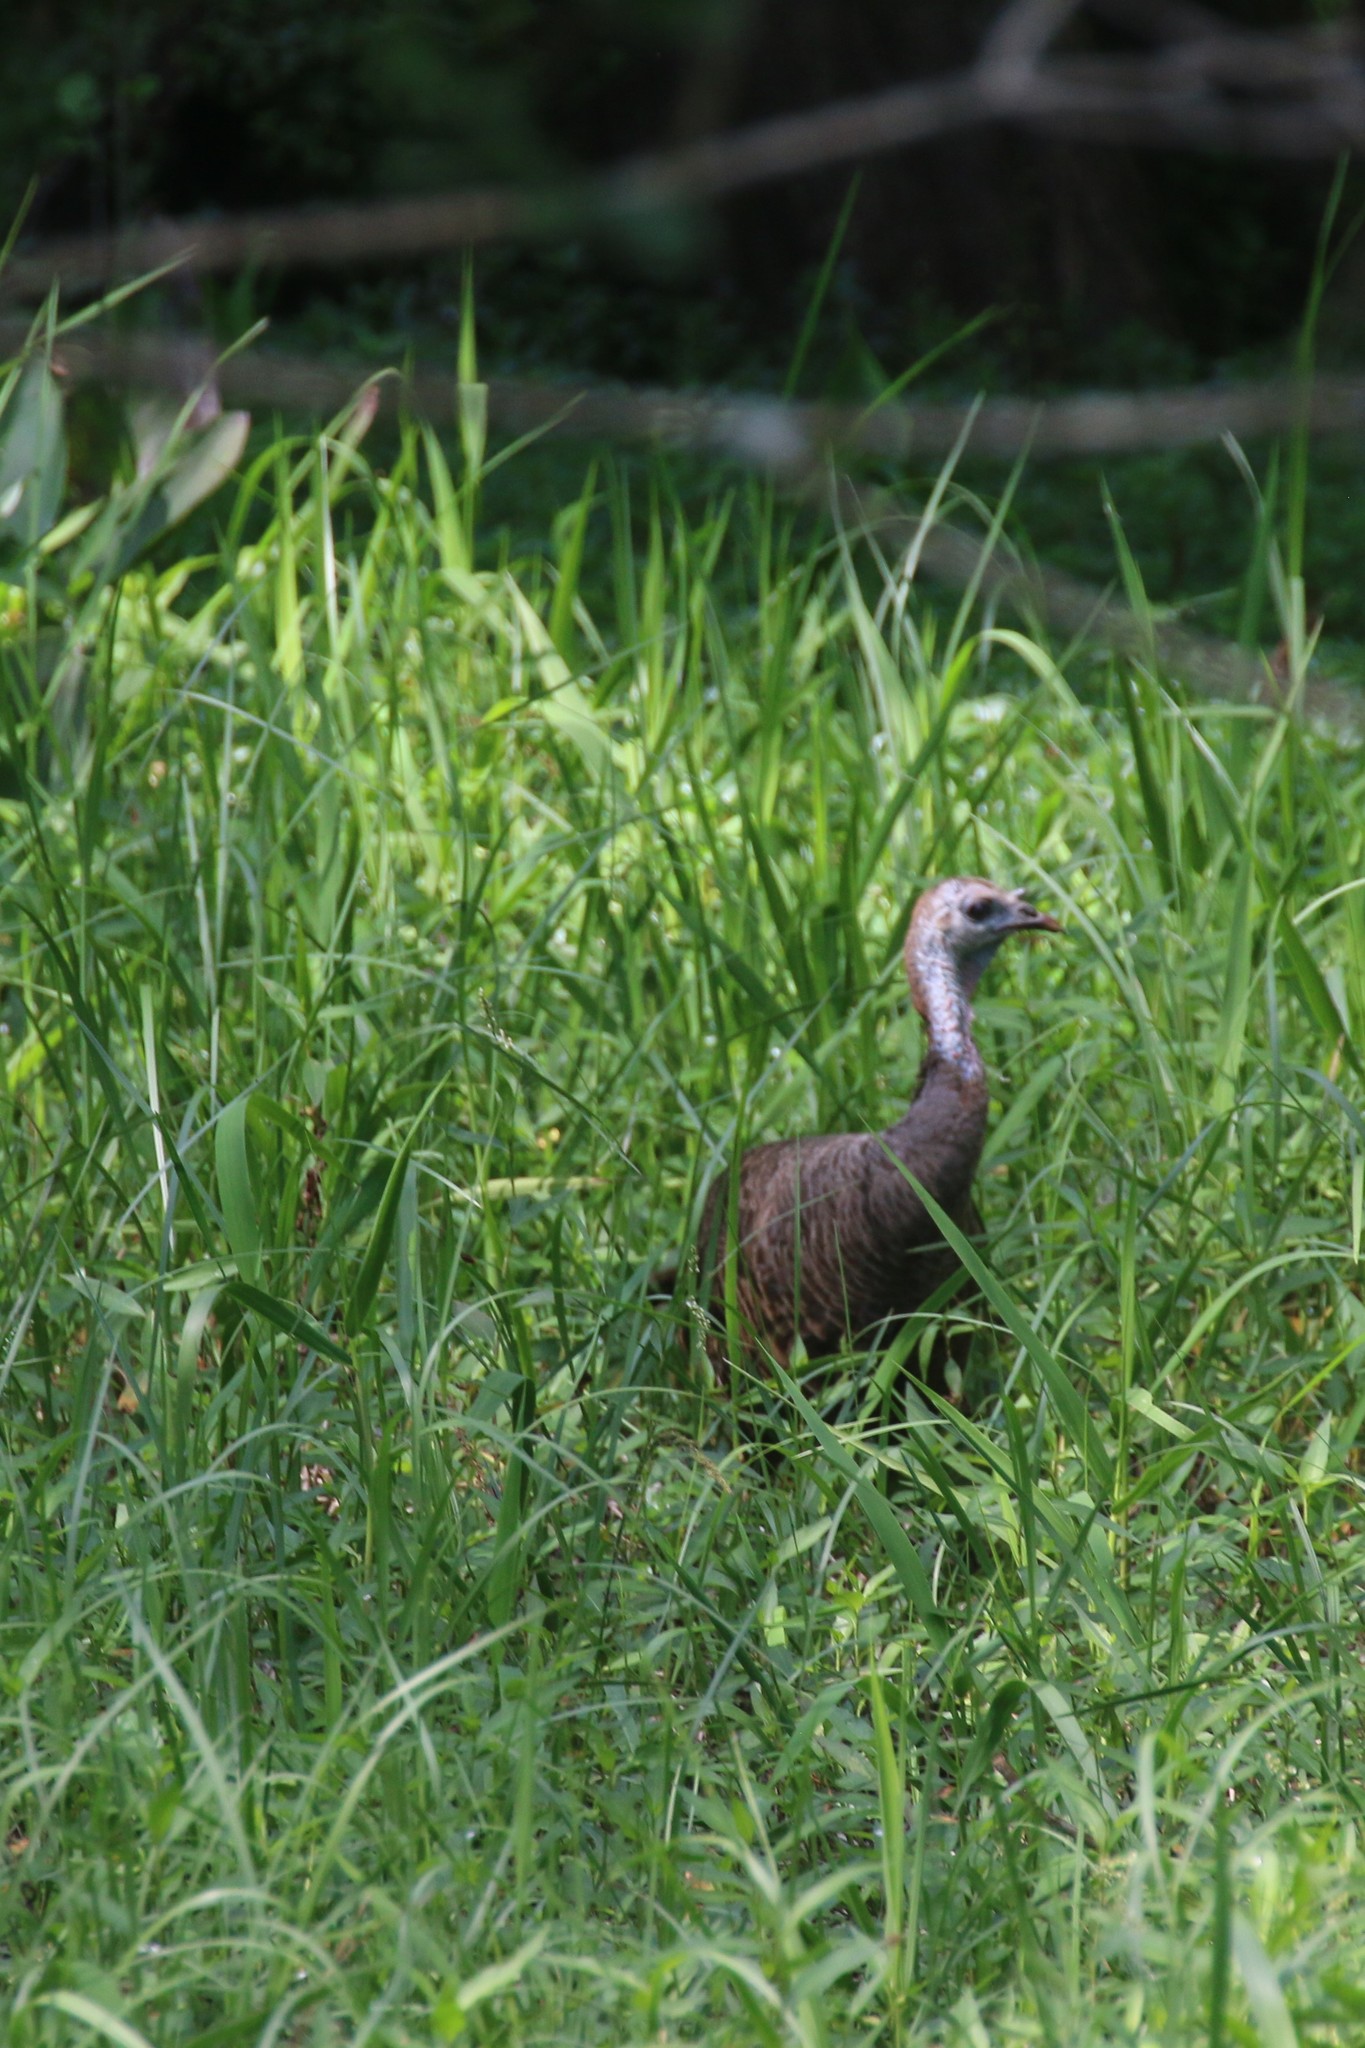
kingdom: Animalia
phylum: Chordata
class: Aves
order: Galliformes
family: Phasianidae
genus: Meleagris
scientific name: Meleagris gallopavo
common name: Wild turkey
